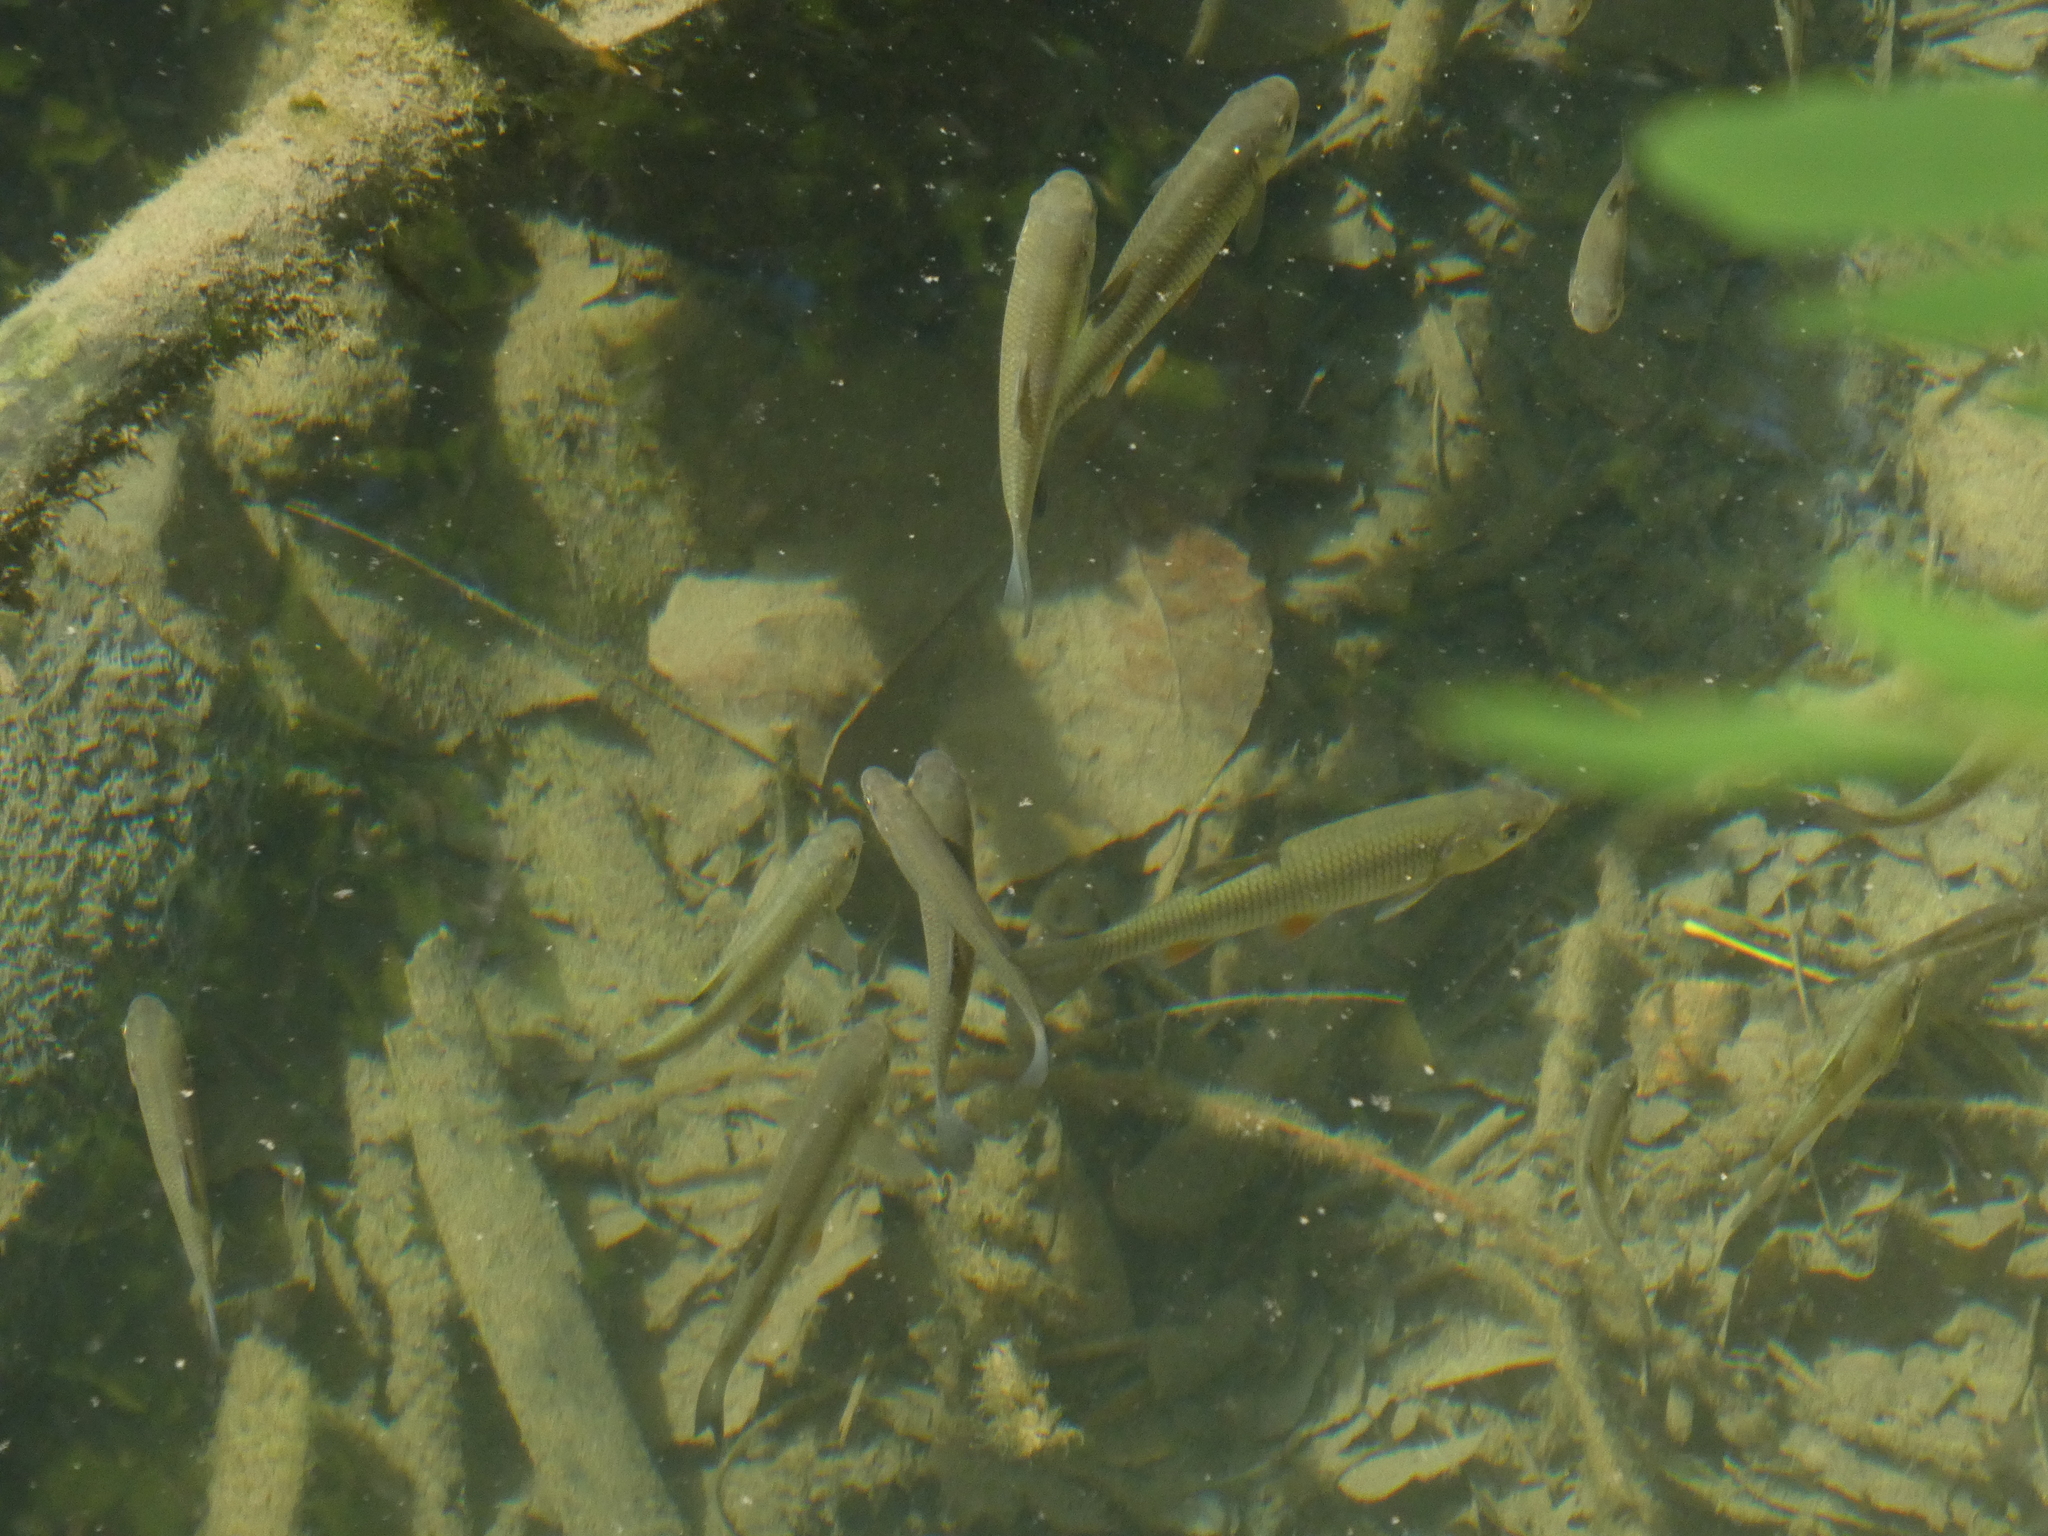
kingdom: Animalia
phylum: Chordata
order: Cypriniformes
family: Cyprinidae
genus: Squalius
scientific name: Squalius cephalus
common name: Chub
